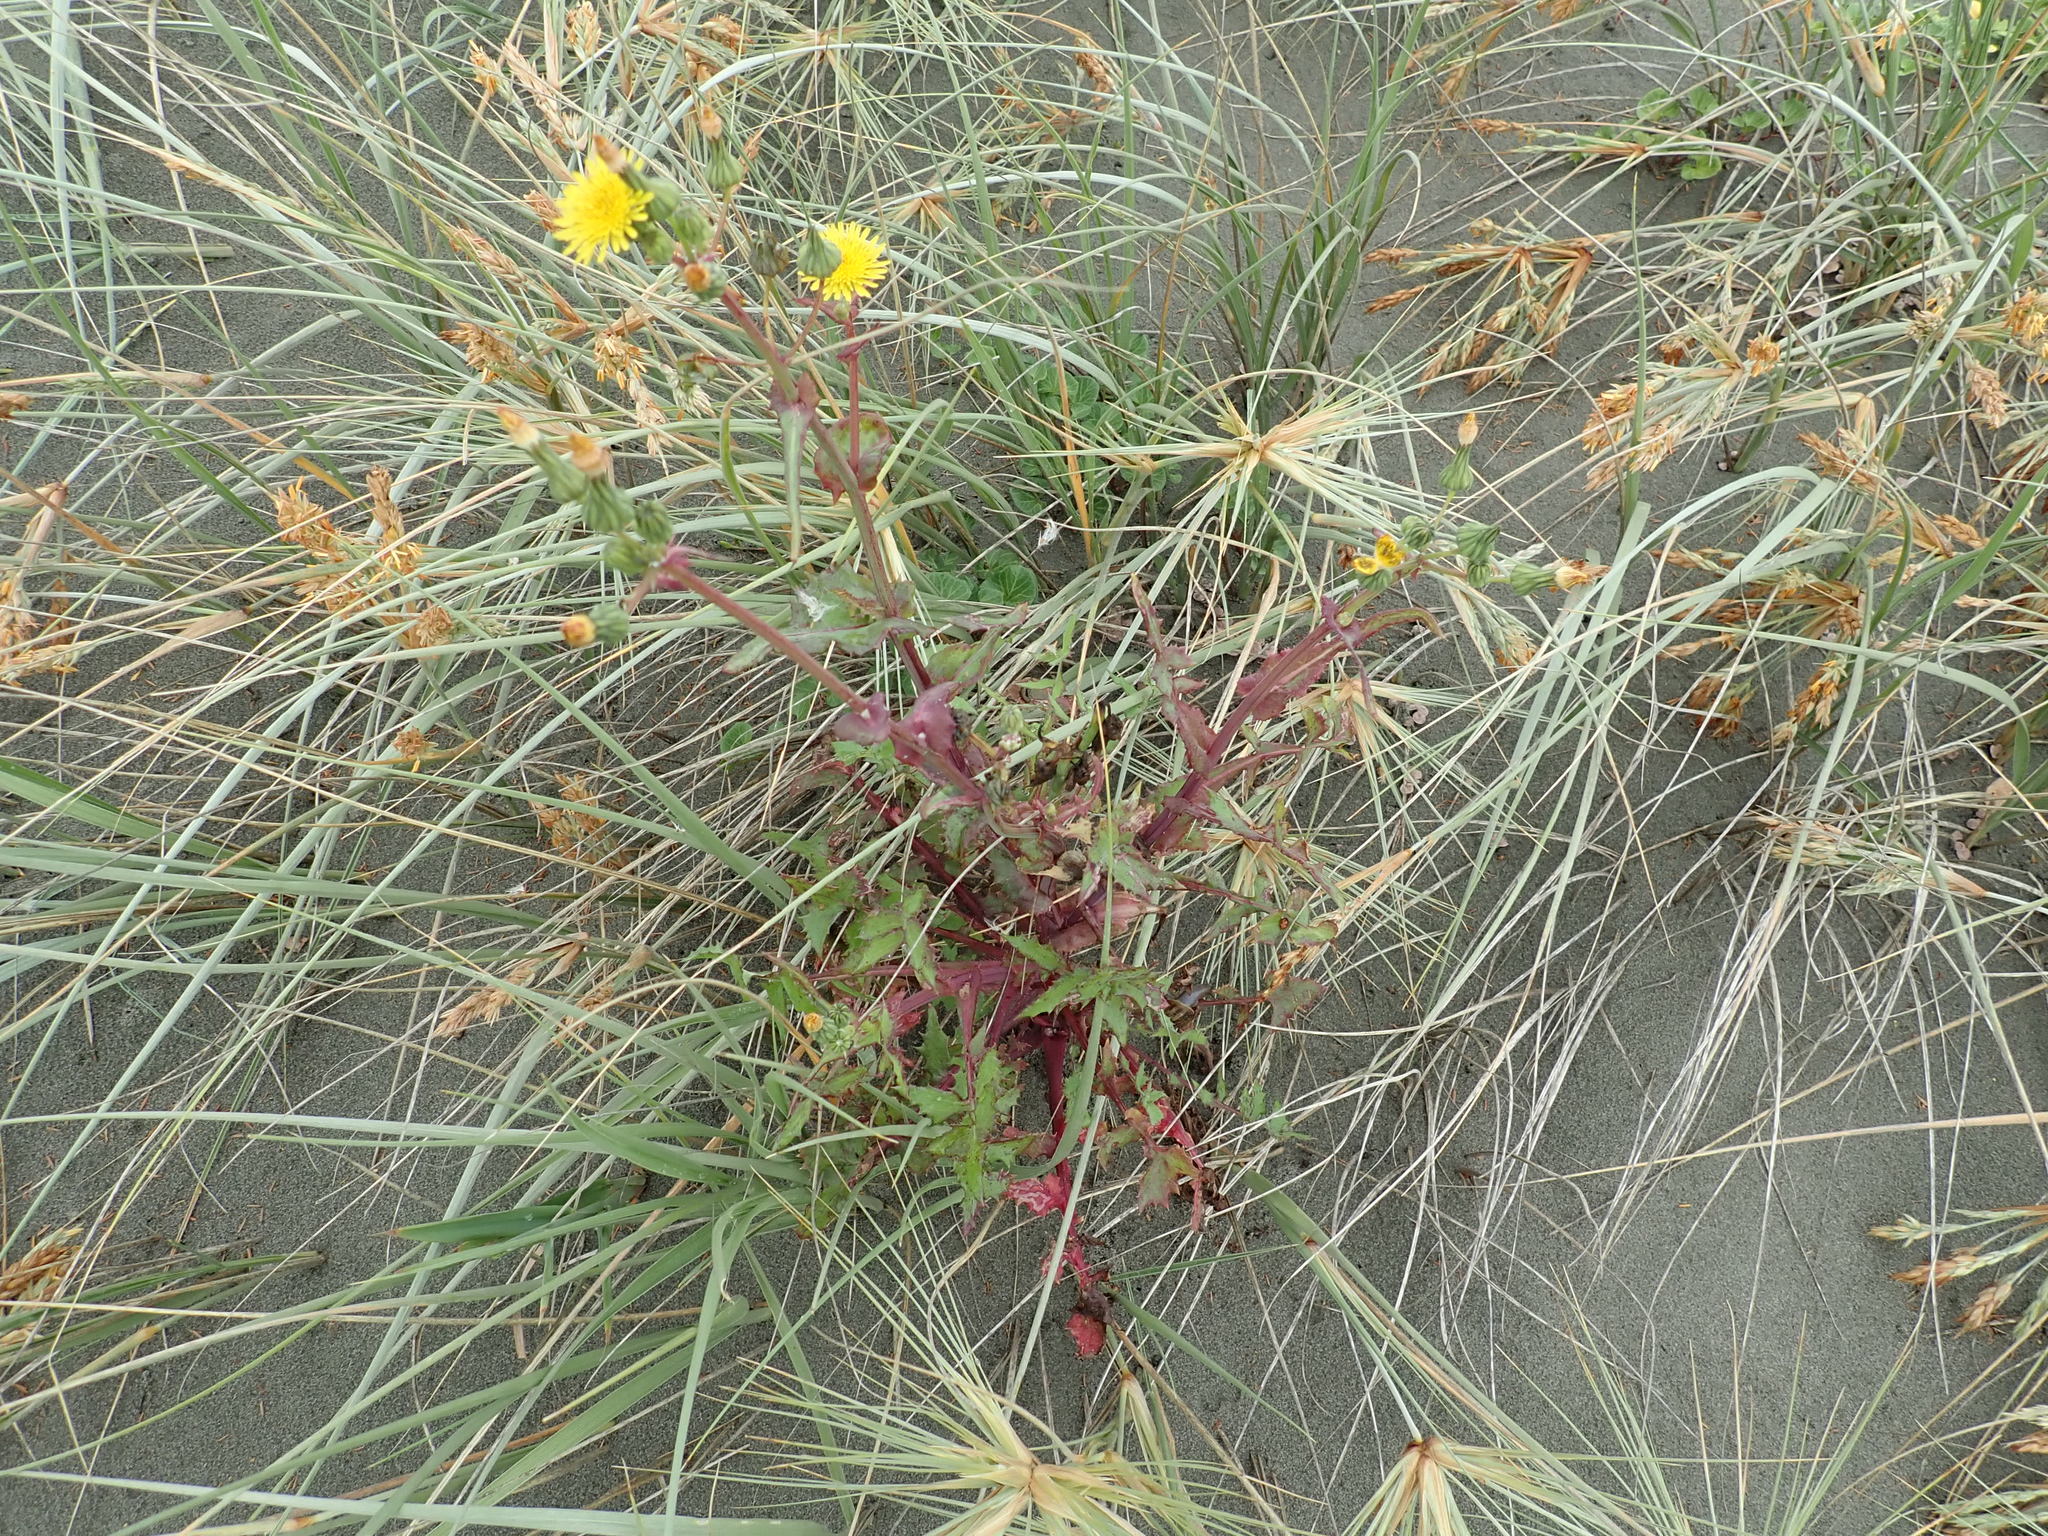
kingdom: Plantae
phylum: Tracheophyta
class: Magnoliopsida
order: Asterales
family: Asteraceae
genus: Sonchus
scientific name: Sonchus oleraceus
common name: Common sowthistle
